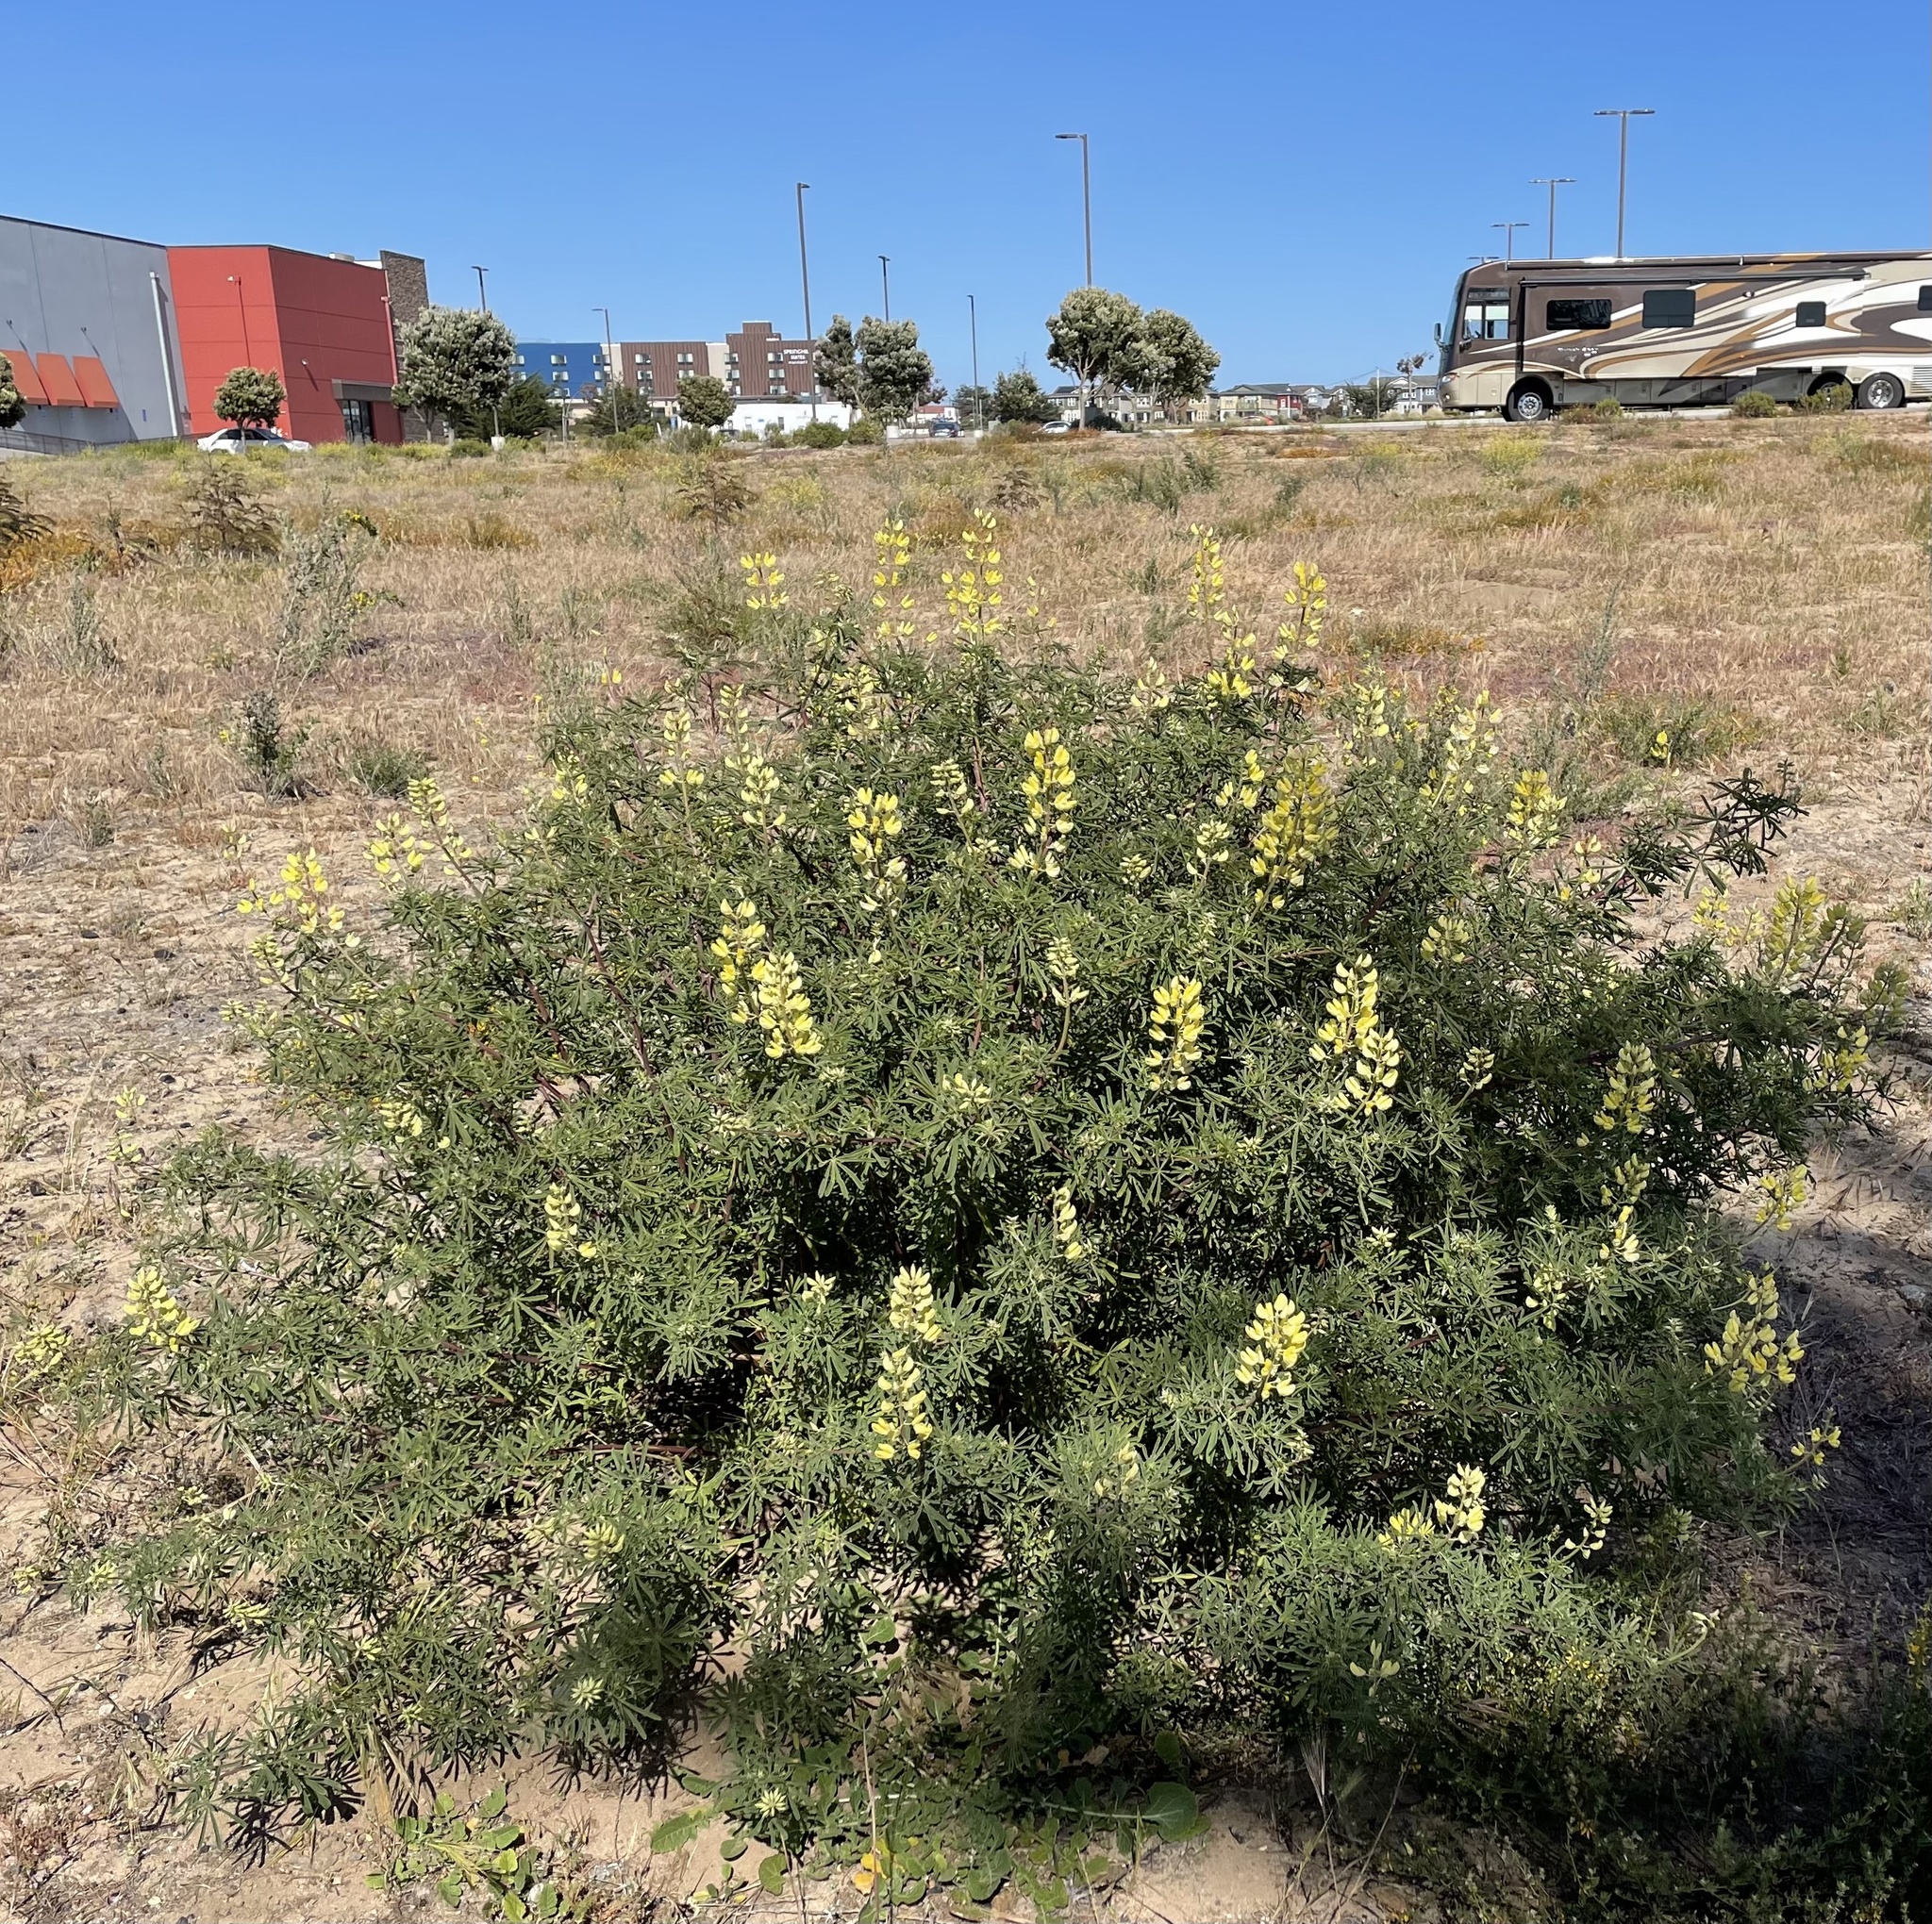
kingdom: Plantae
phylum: Tracheophyta
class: Magnoliopsida
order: Fabales
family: Fabaceae
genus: Lupinus
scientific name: Lupinus arboreus
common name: Yellow bush lupine
